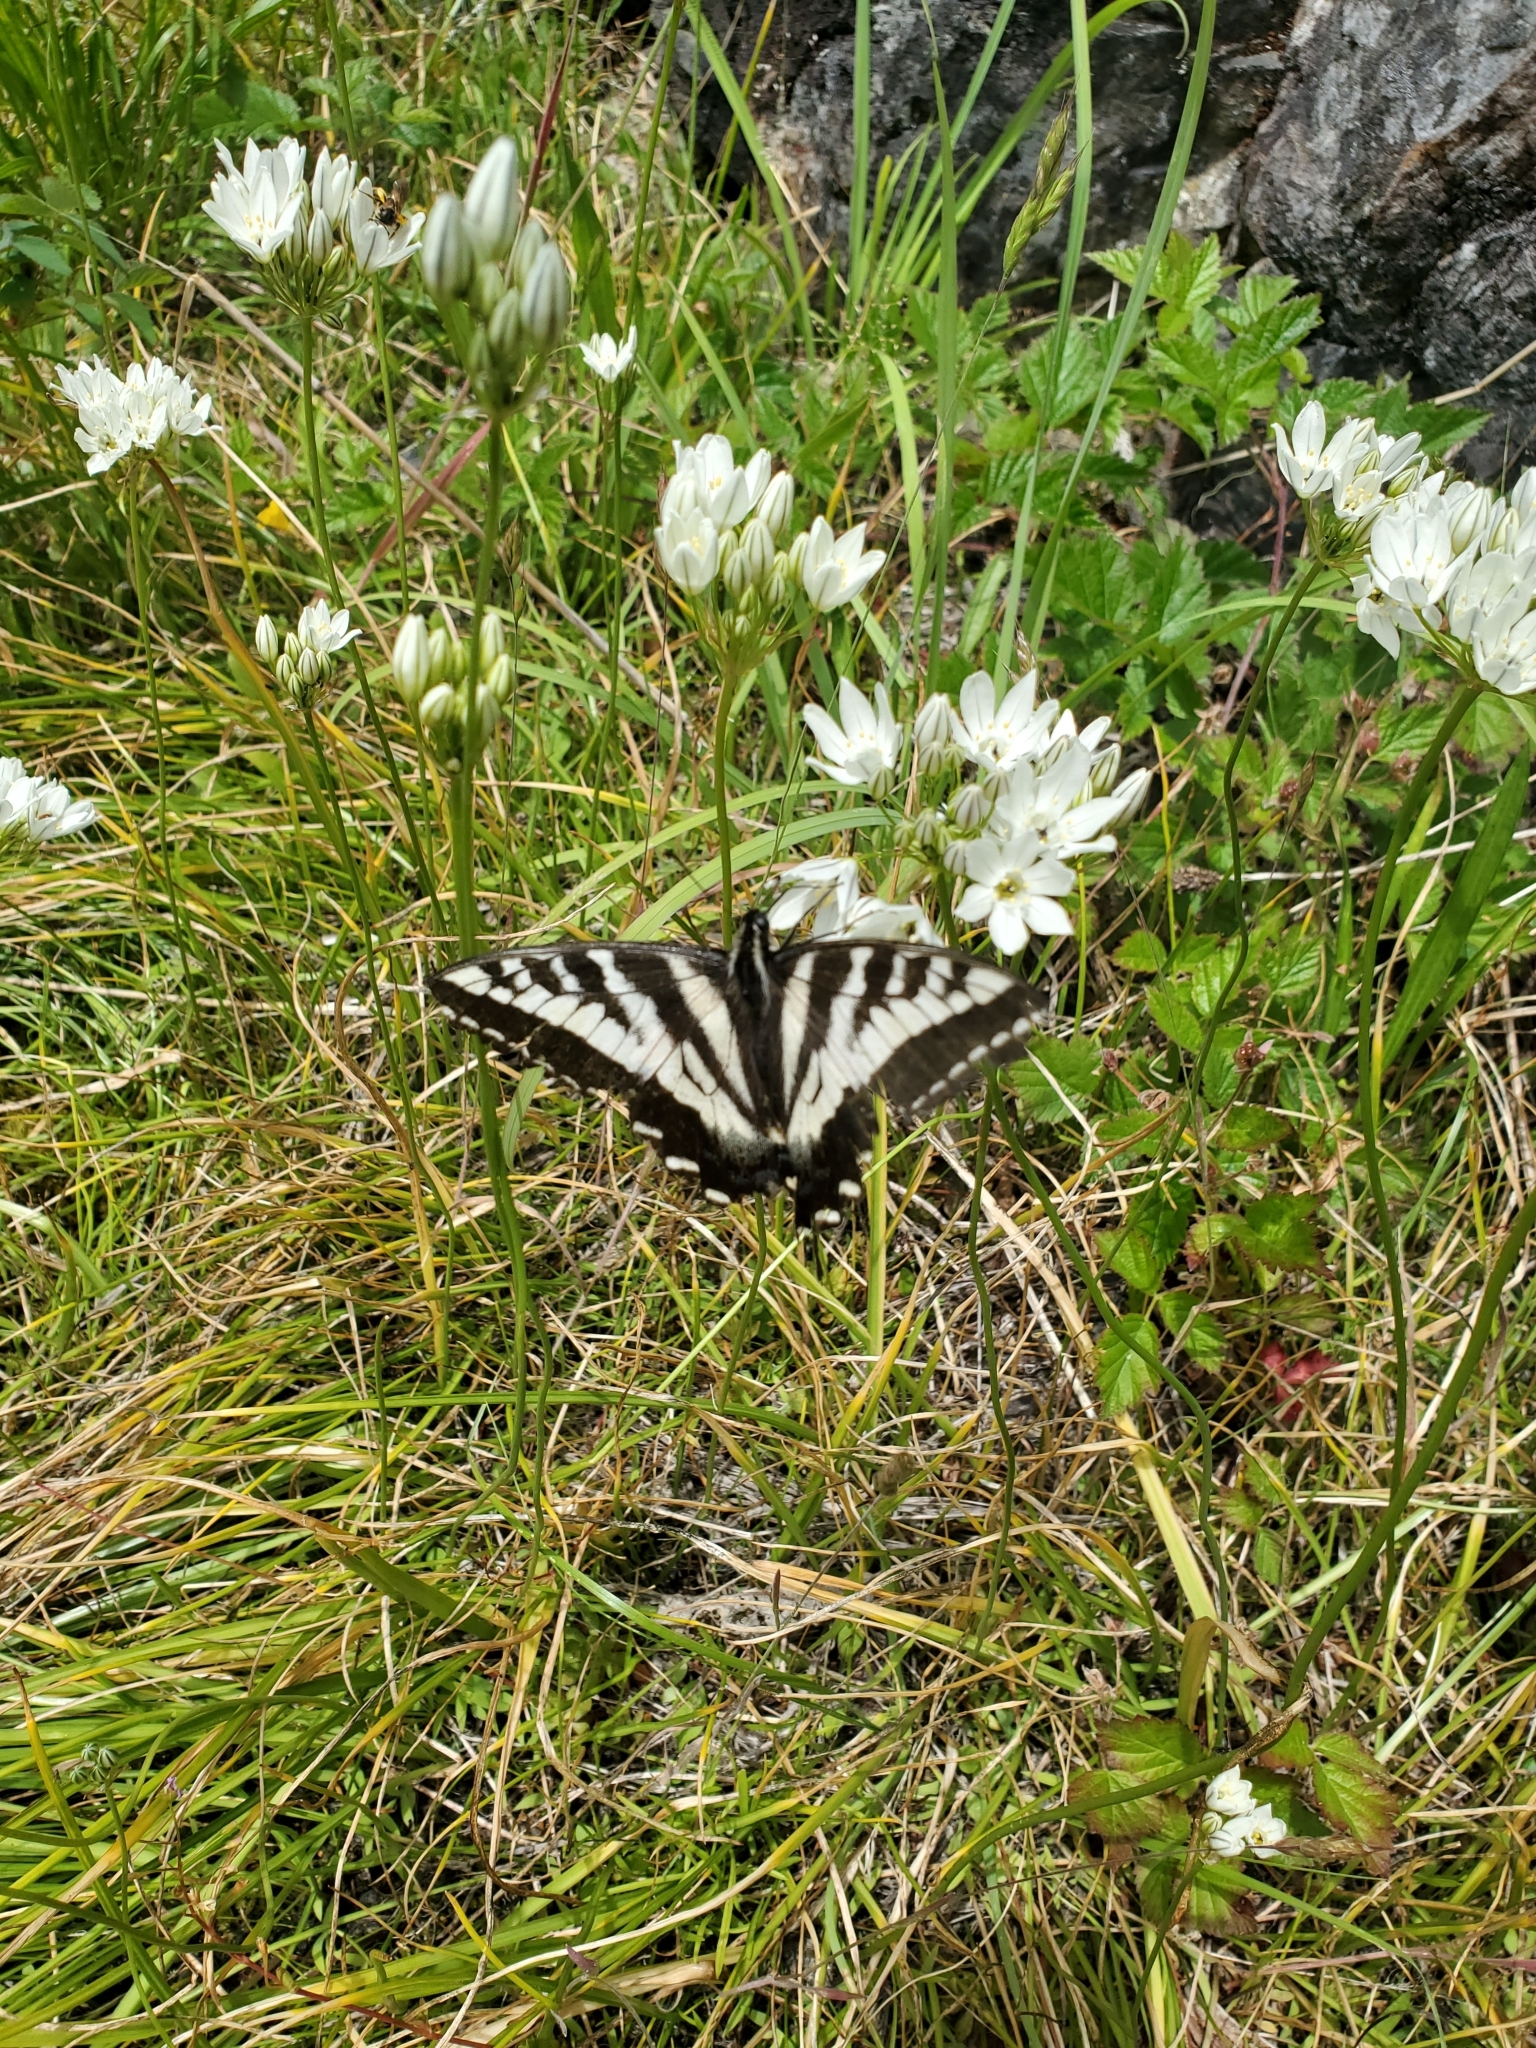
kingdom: Animalia
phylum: Arthropoda
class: Insecta
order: Lepidoptera
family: Papilionidae
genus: Papilio
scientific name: Papilio eurymedon
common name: Pale tiger swallowtail
